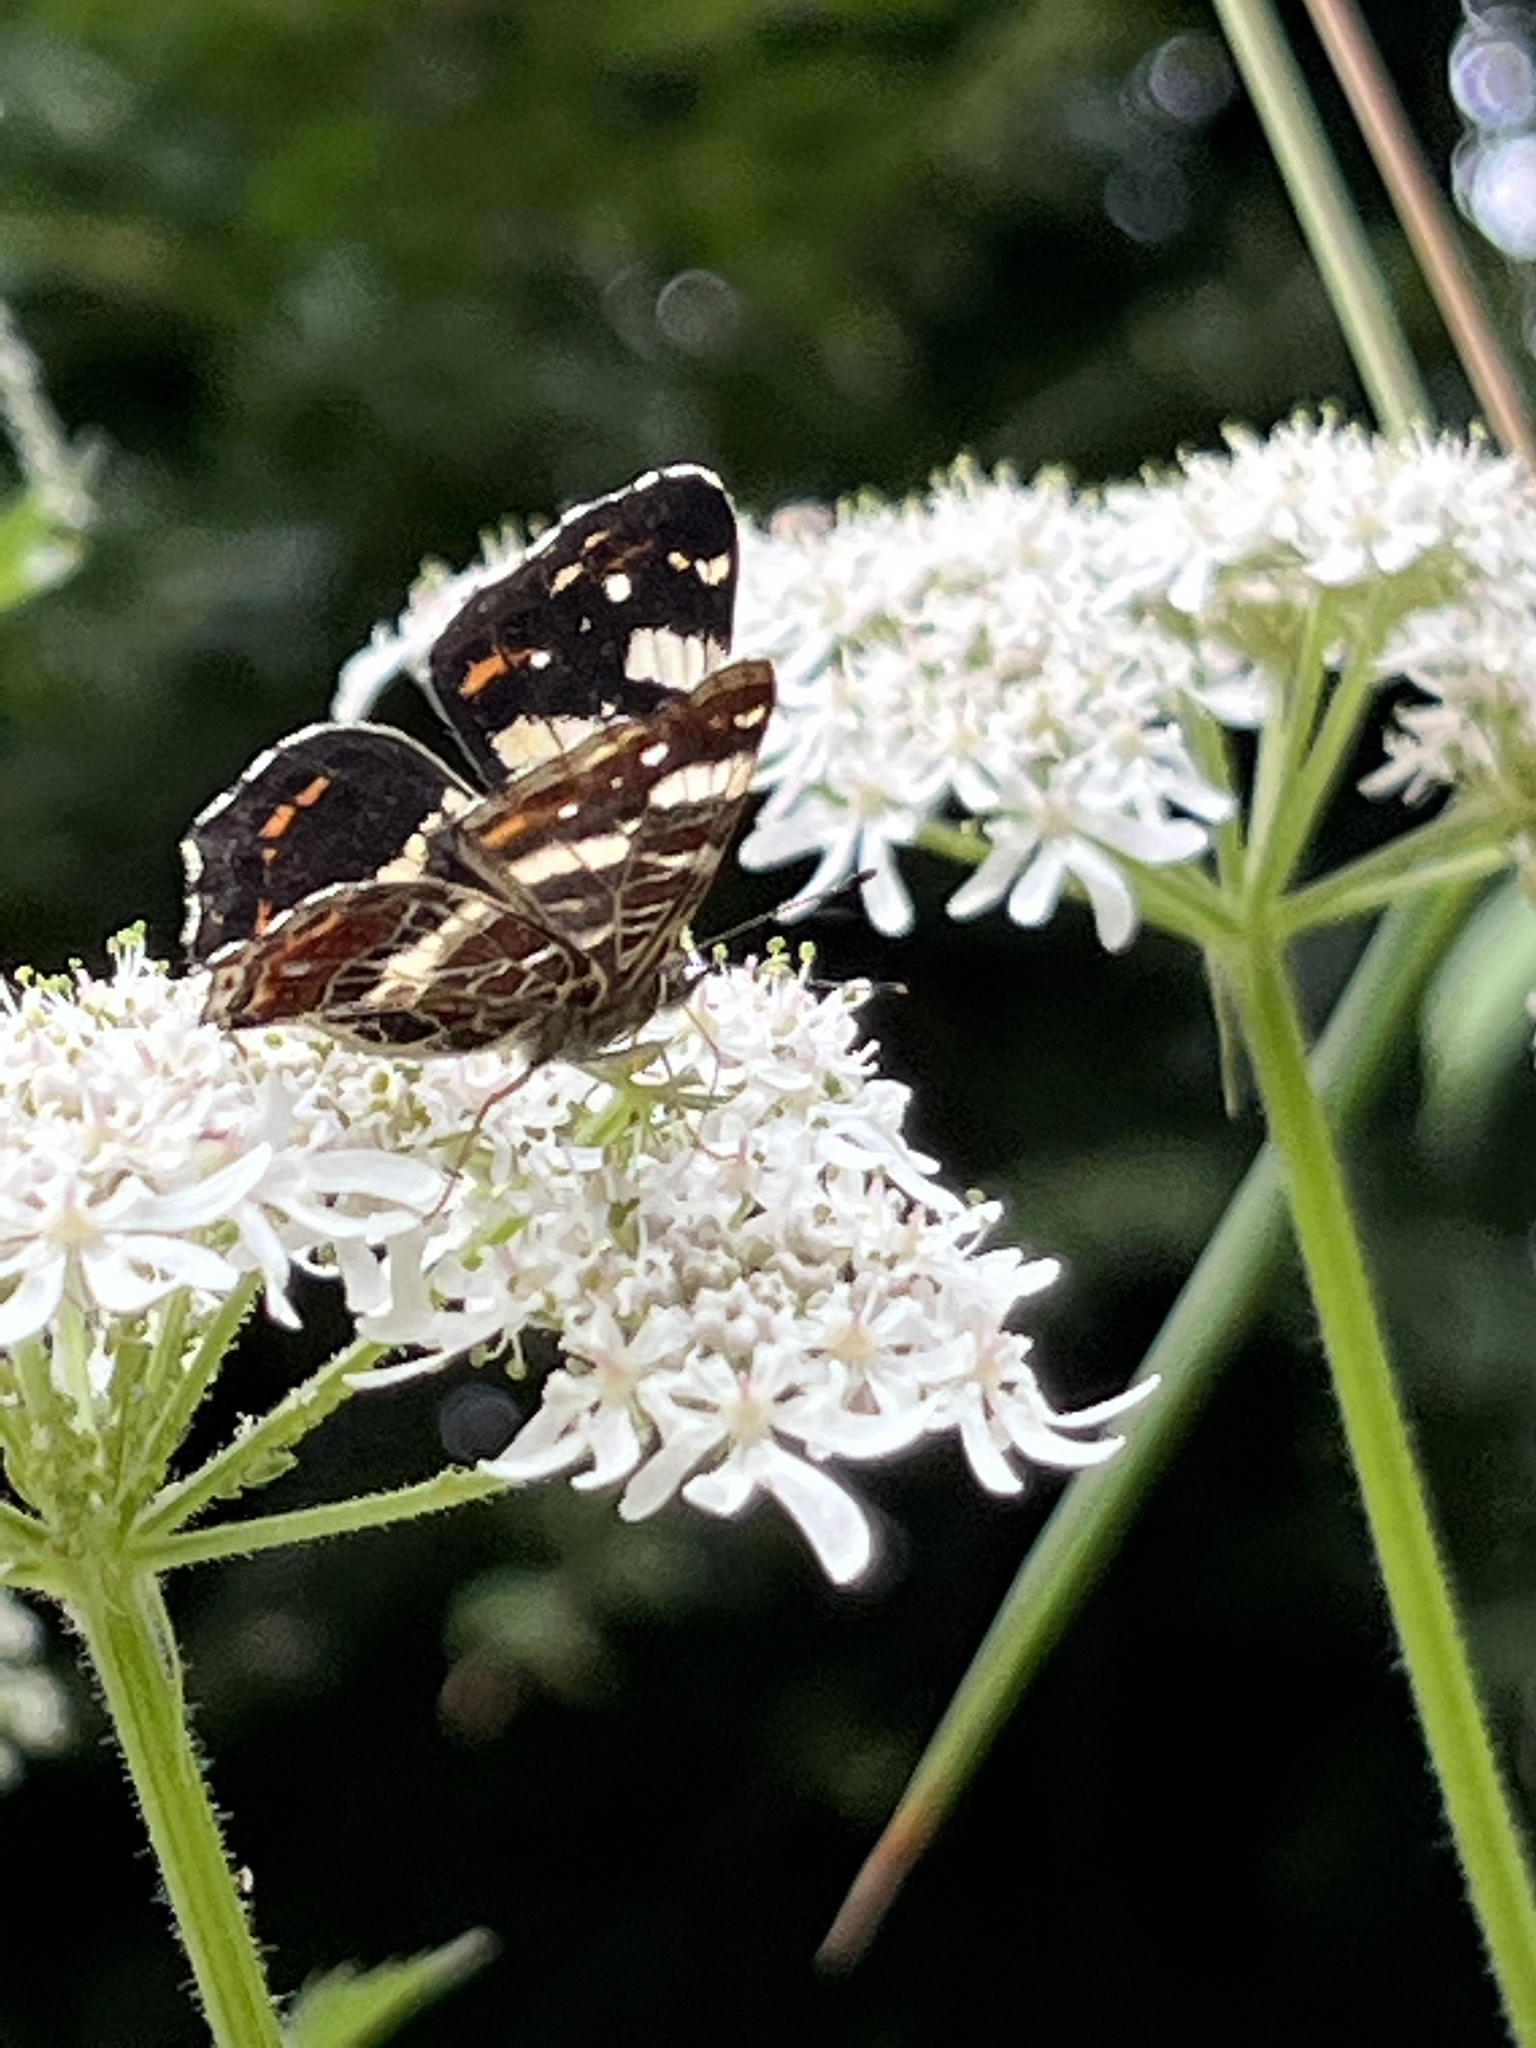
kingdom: Animalia
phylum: Arthropoda
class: Insecta
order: Lepidoptera
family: Nymphalidae
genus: Araschnia
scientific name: Araschnia levana
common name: Map butterfly
